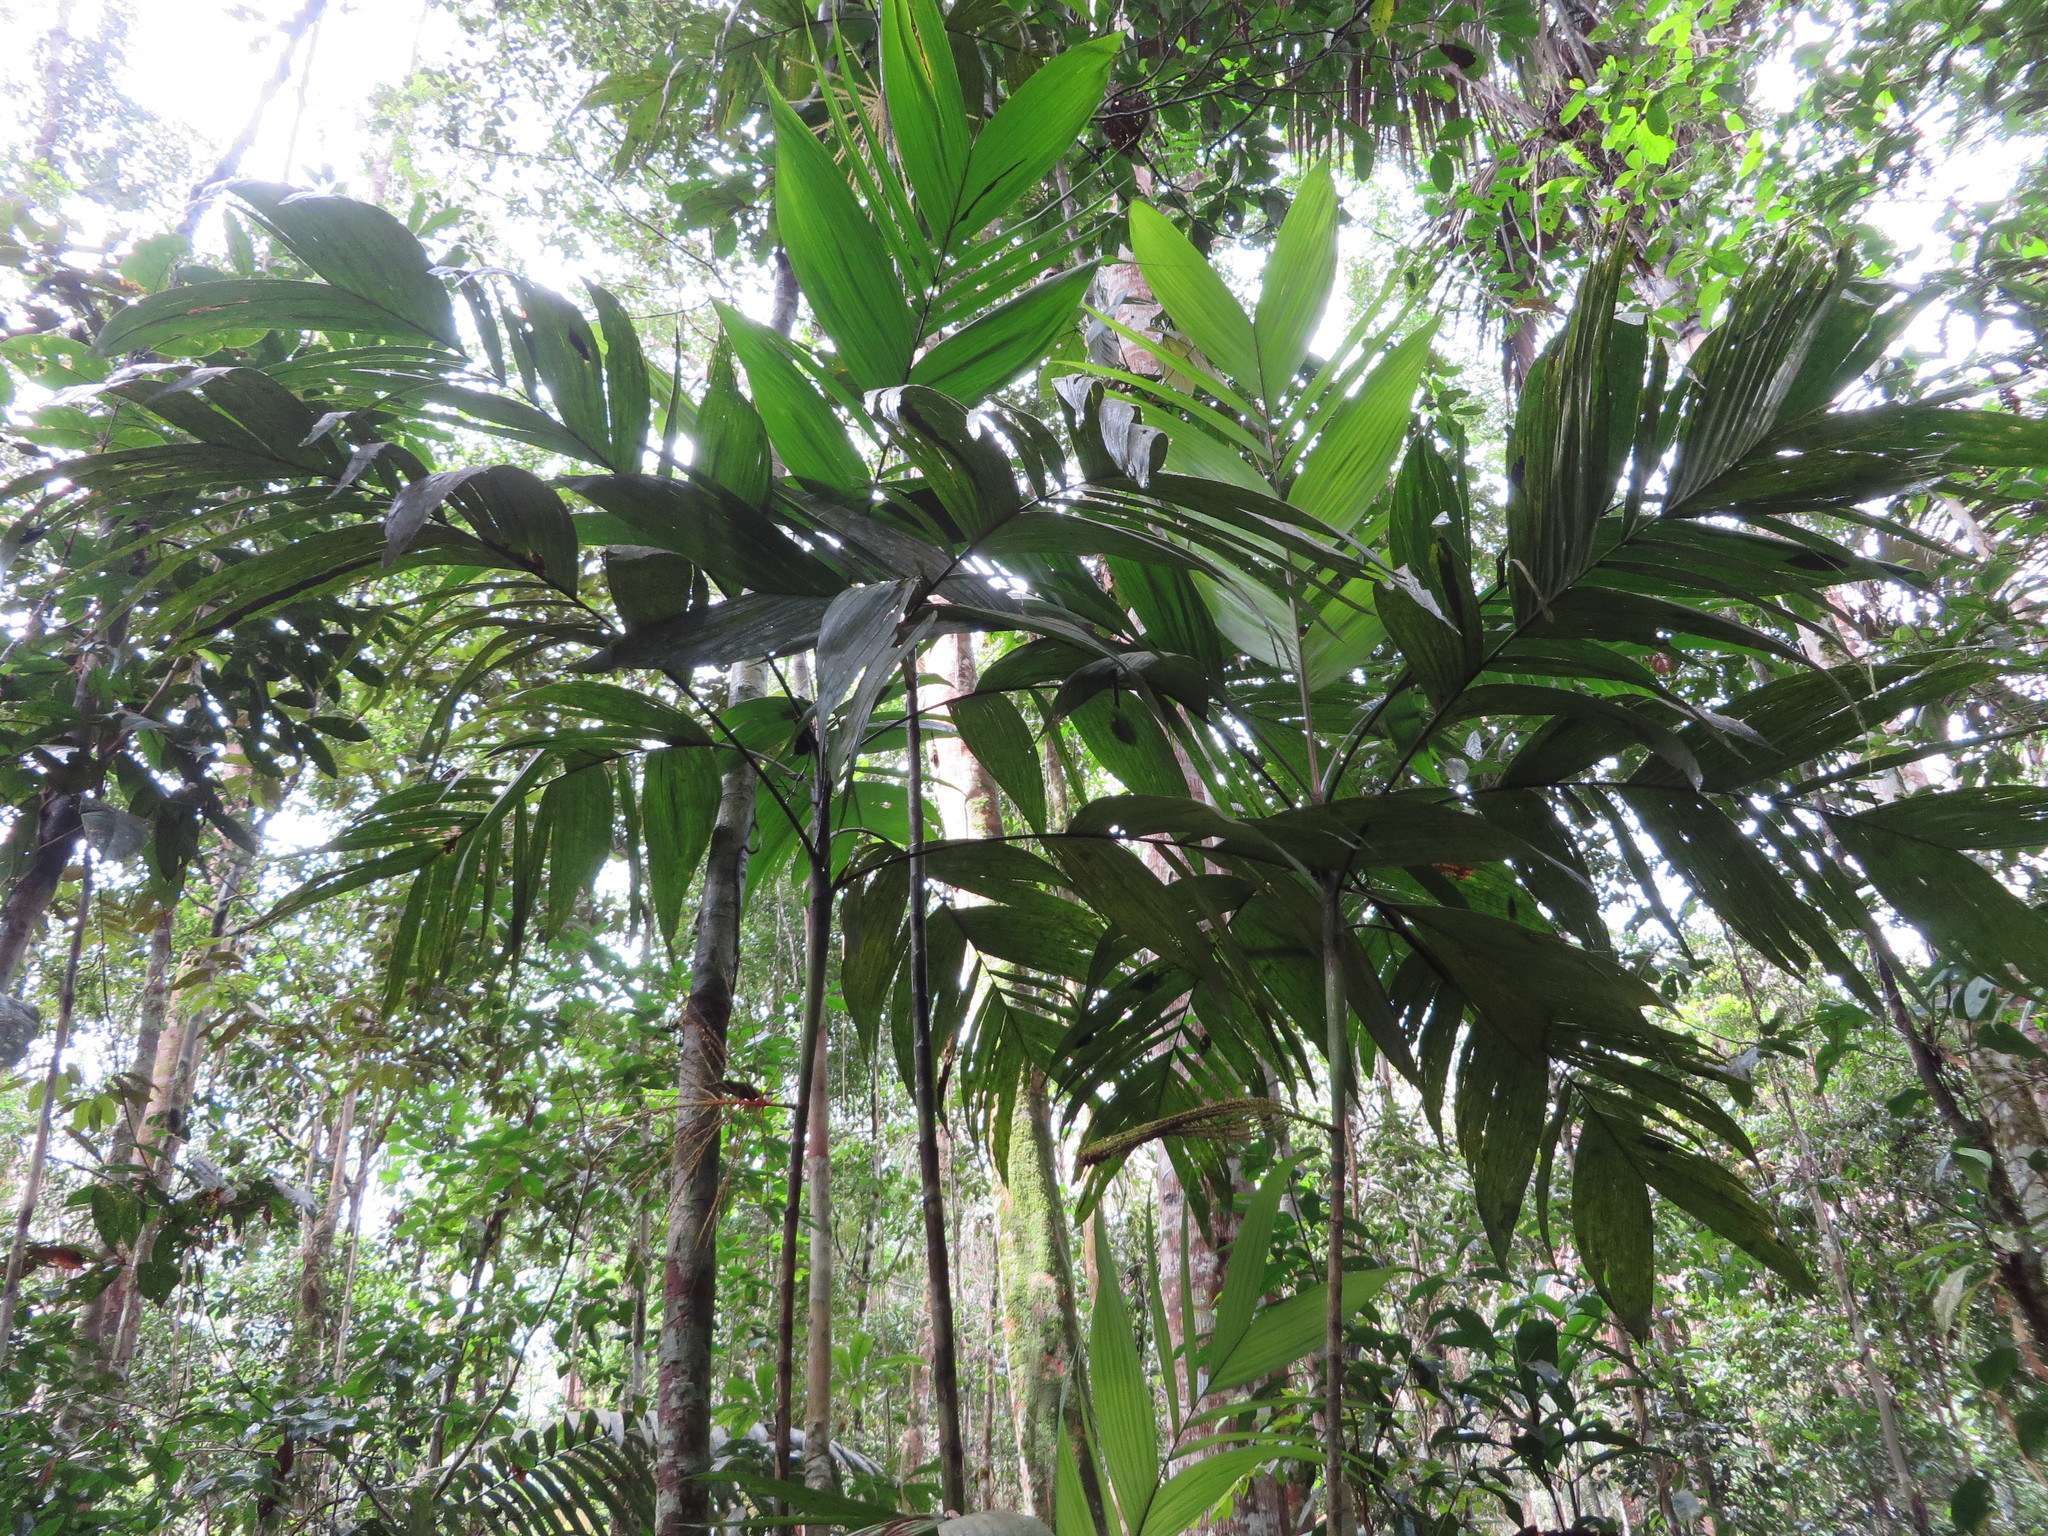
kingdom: Plantae
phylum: Tracheophyta
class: Liliopsida
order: Arecales
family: Arecaceae
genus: Hyospathe
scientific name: Hyospathe elegans
